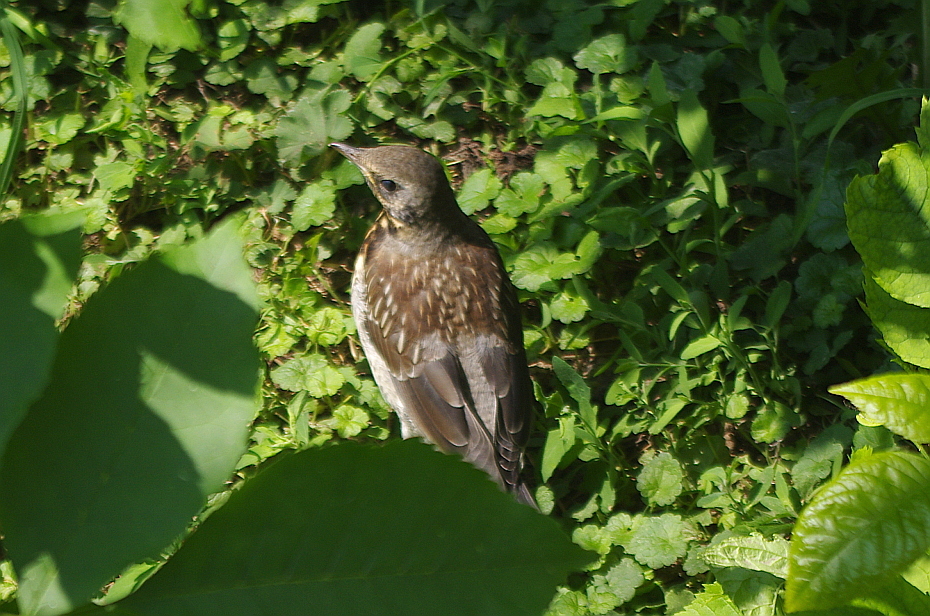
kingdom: Animalia
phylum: Chordata
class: Aves
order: Passeriformes
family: Turdidae
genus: Turdus
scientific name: Turdus pilaris
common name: Fieldfare
